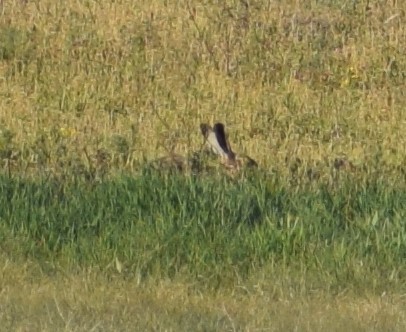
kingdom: Animalia
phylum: Chordata
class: Mammalia
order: Lagomorpha
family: Leporidae
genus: Lepus
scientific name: Lepus europaeus
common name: European hare
